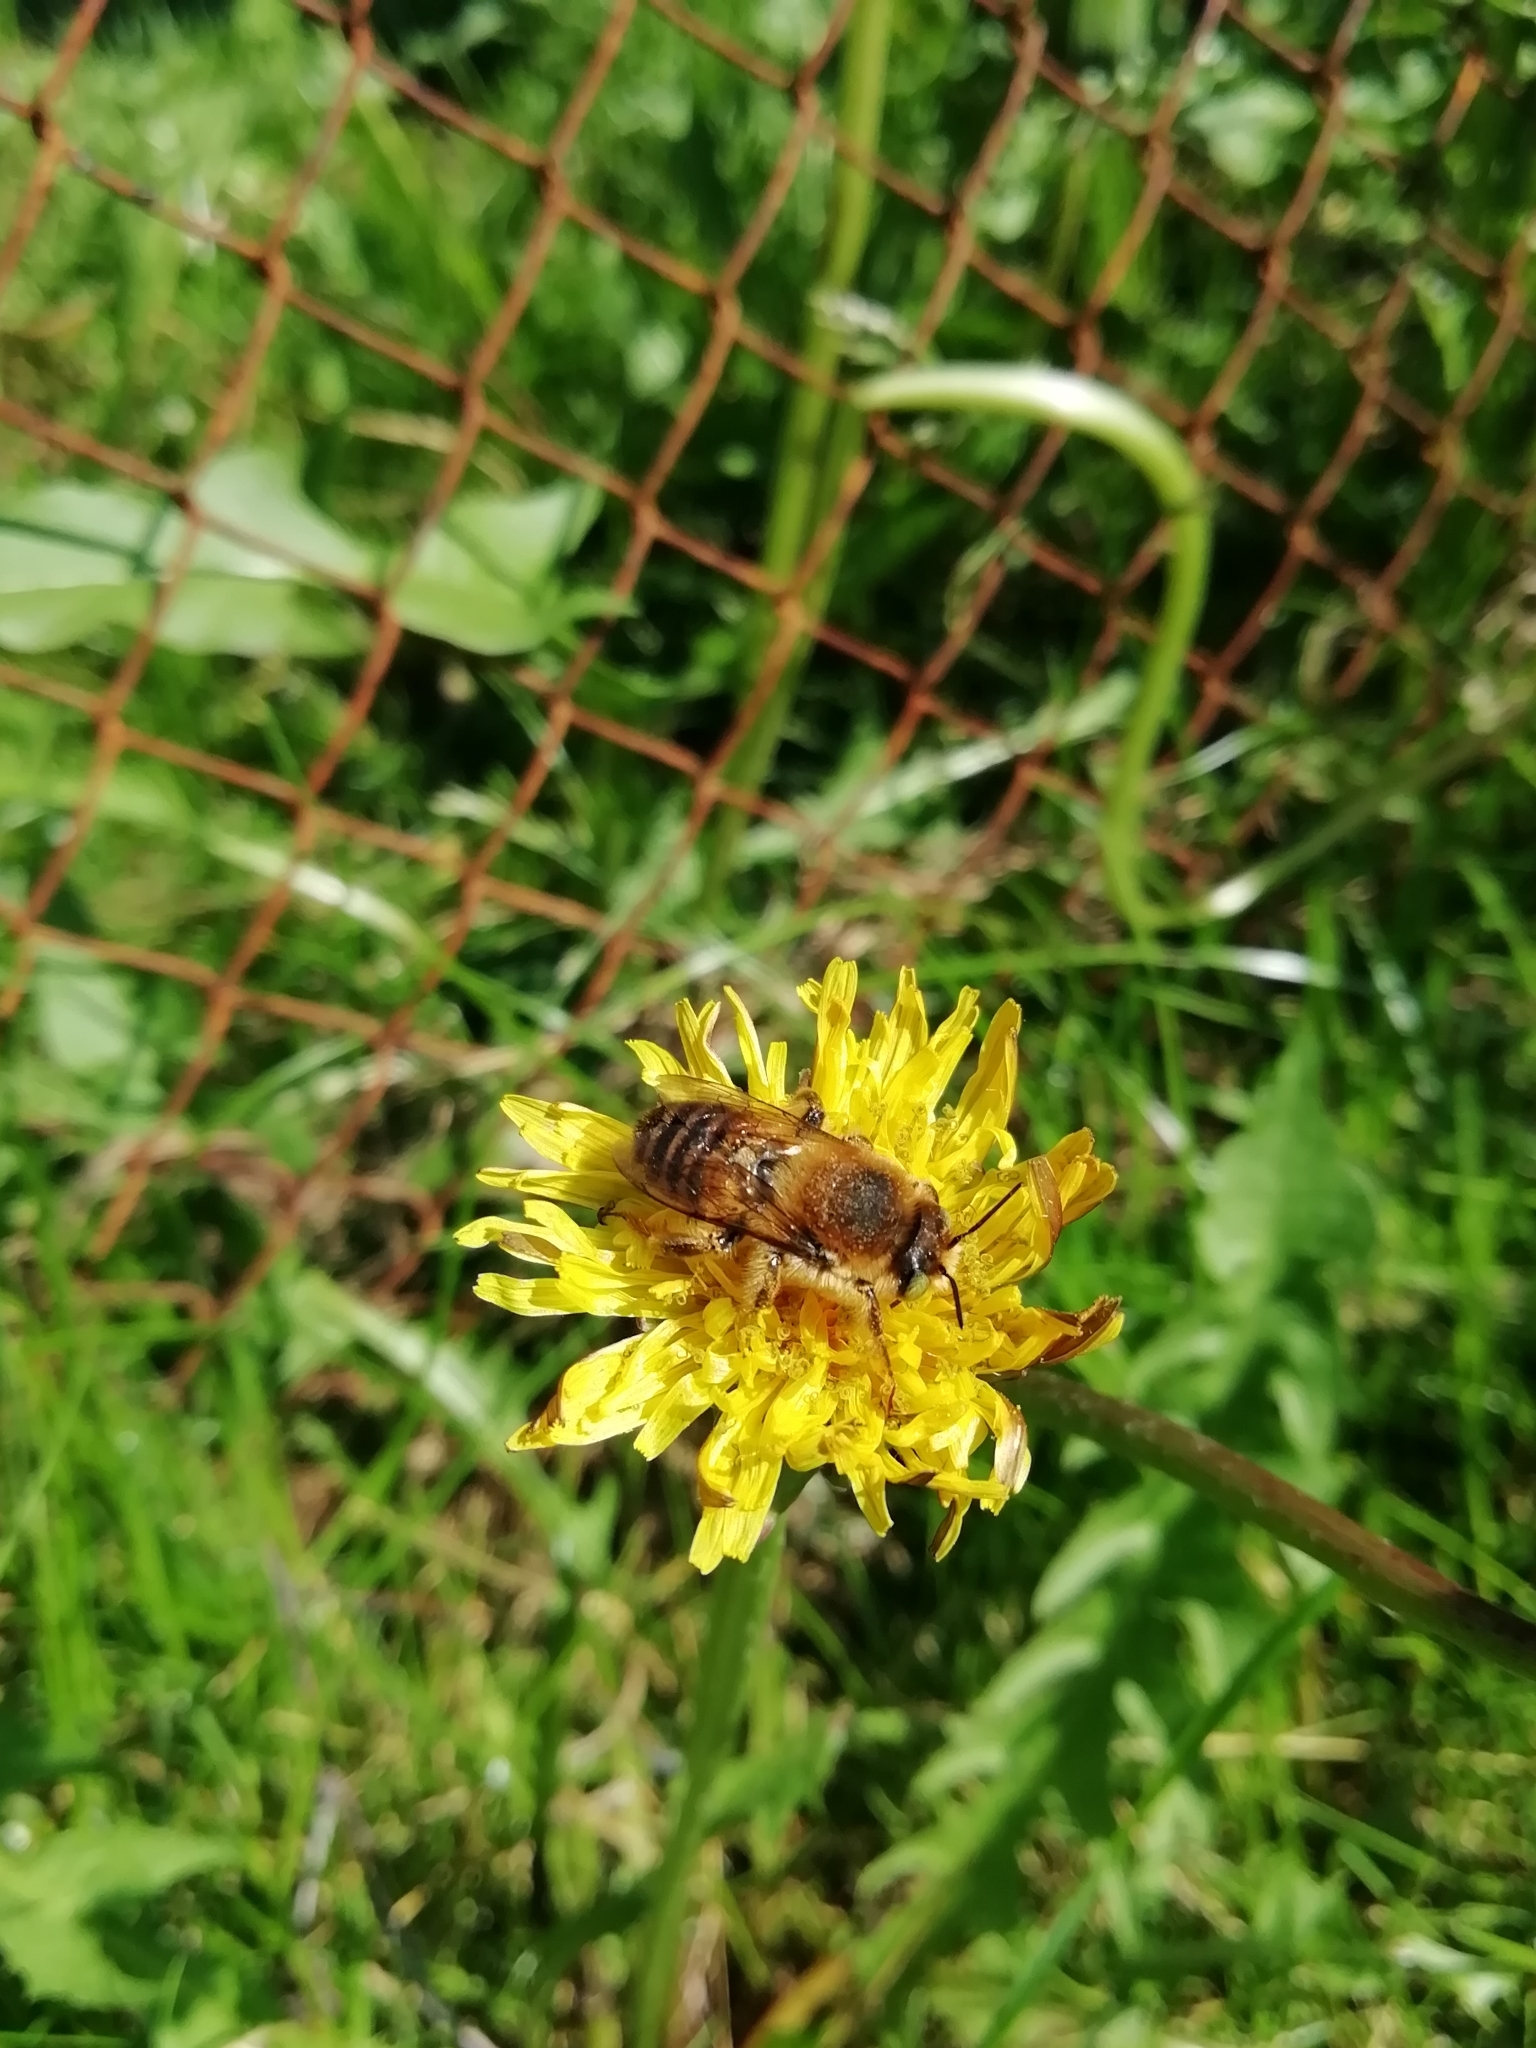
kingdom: Animalia
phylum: Arthropoda
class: Insecta
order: Hymenoptera
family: Megachilidae
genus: Lithurgus
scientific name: Lithurgus cornutus
